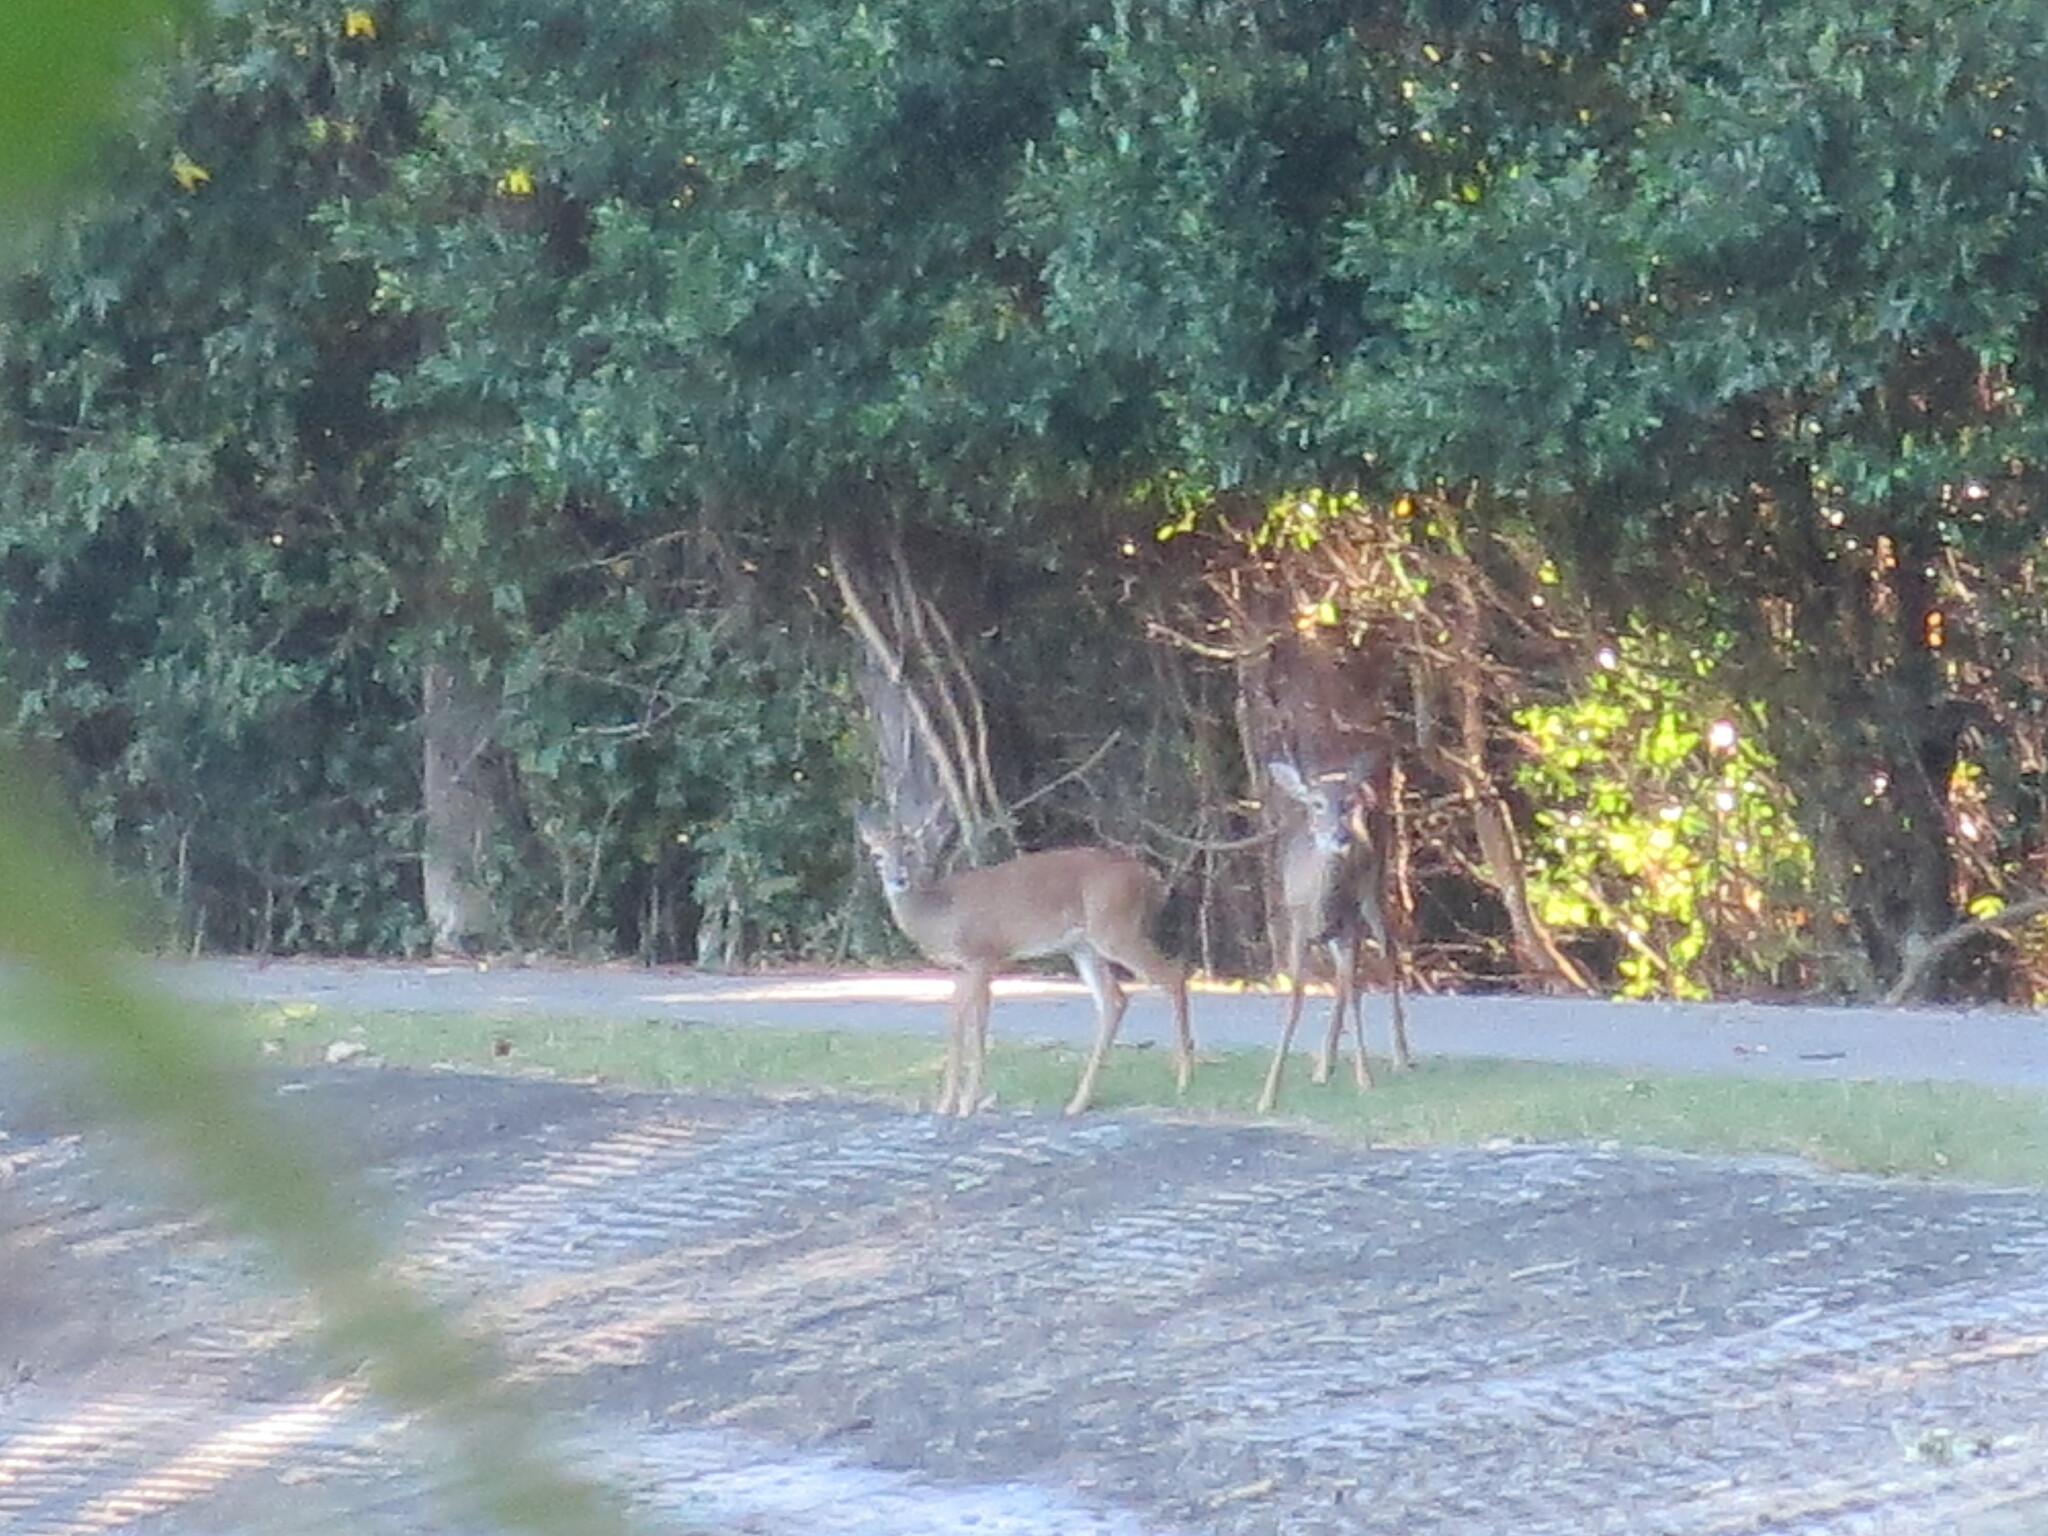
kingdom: Animalia
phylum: Chordata
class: Mammalia
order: Artiodactyla
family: Cervidae
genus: Odocoileus
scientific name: Odocoileus virginianus
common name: White-tailed deer
